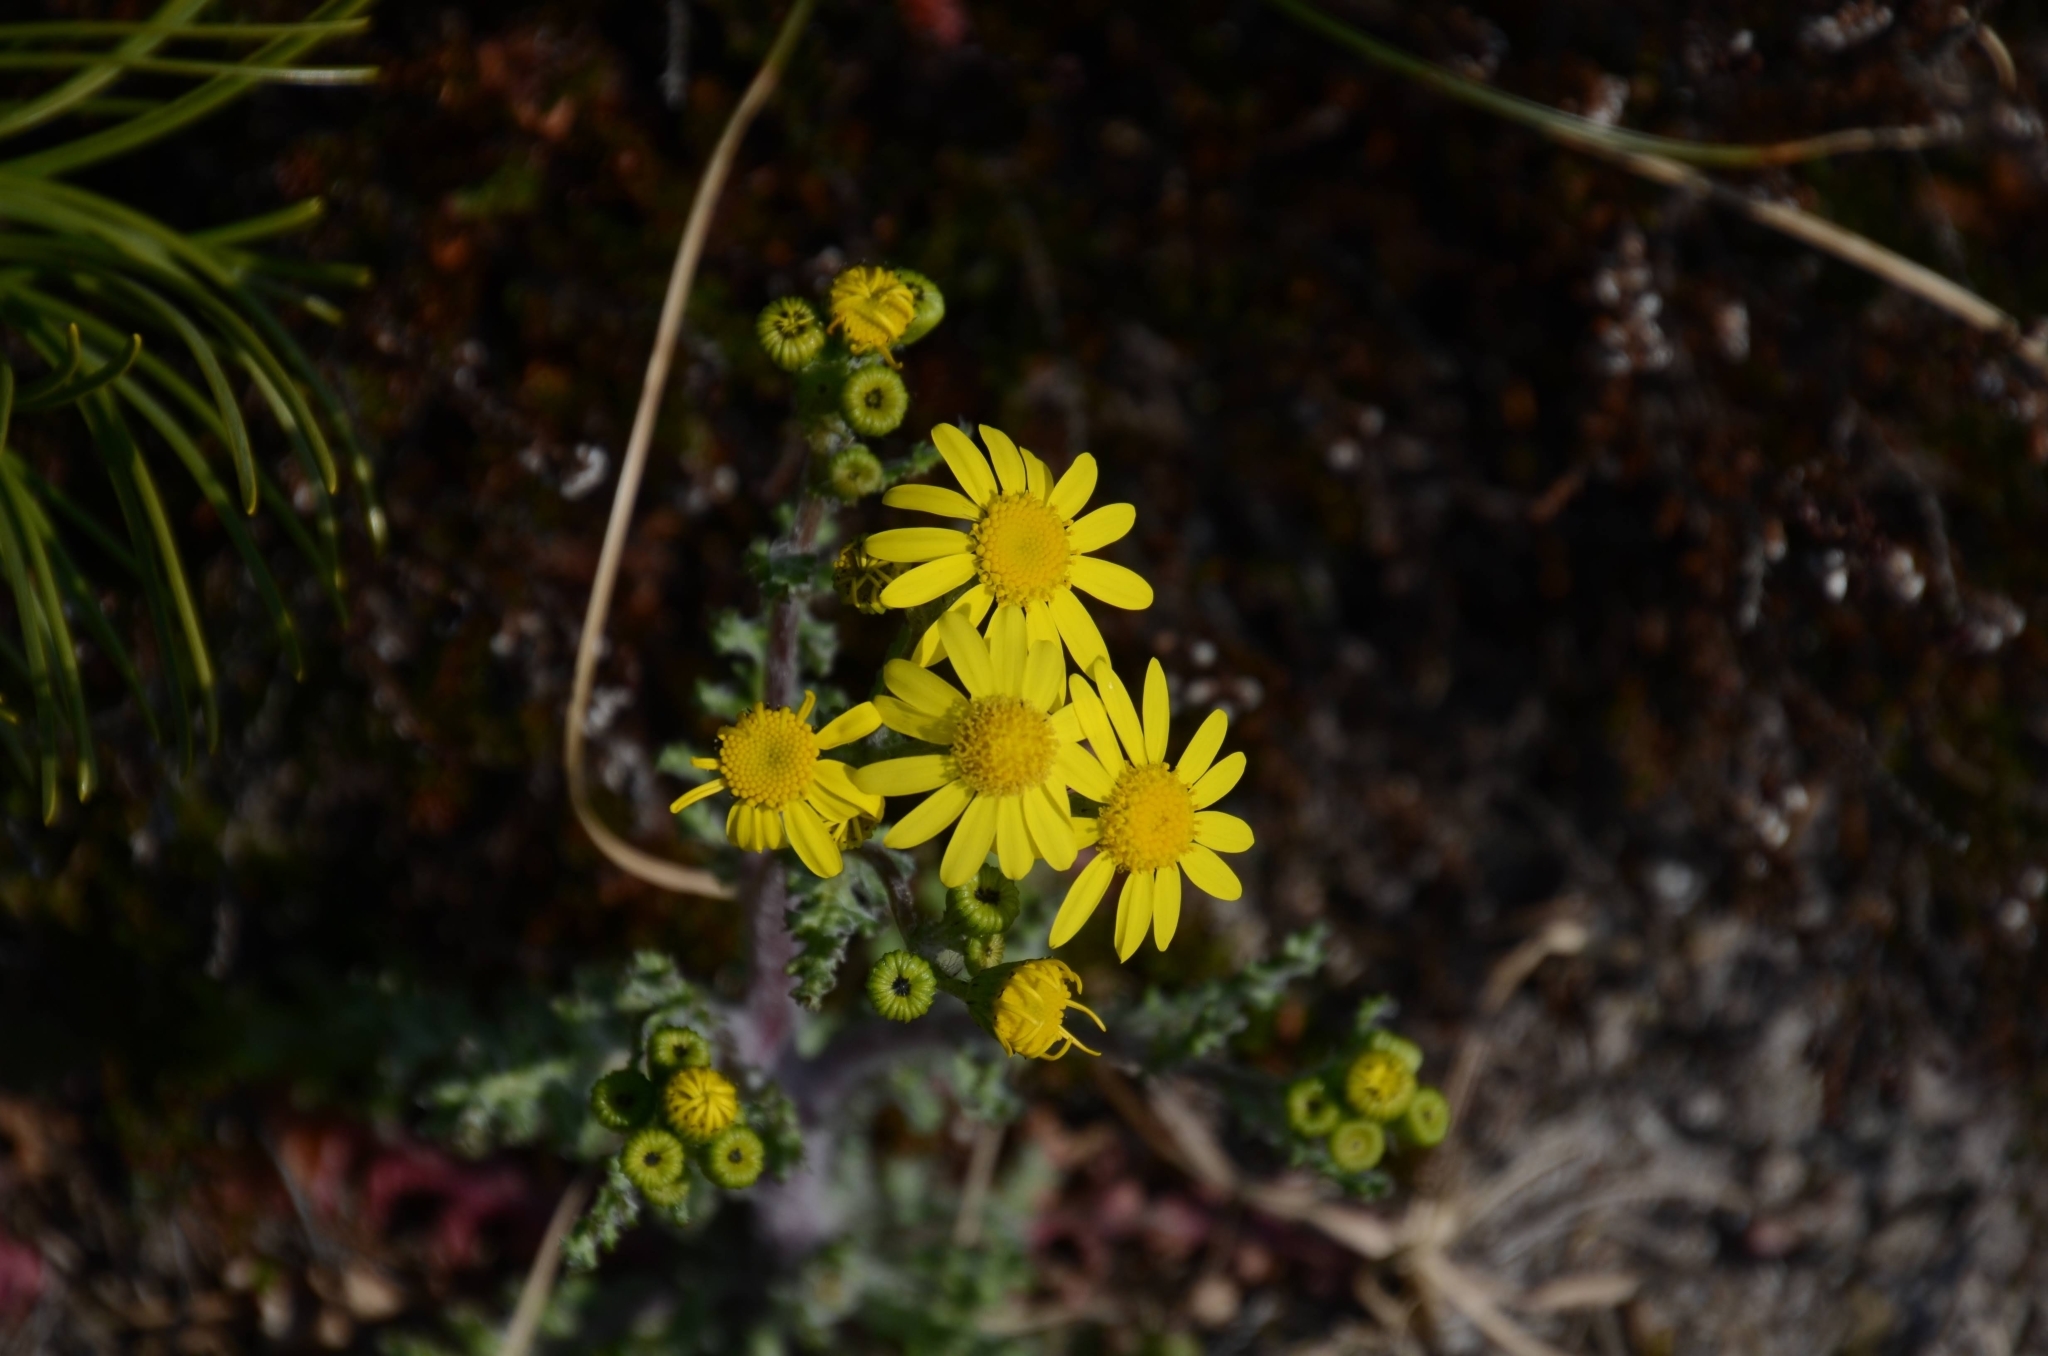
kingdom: Plantae
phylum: Tracheophyta
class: Magnoliopsida
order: Asterales
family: Asteraceae
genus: Senecio
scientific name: Senecio vernalis
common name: Eastern groundsel
